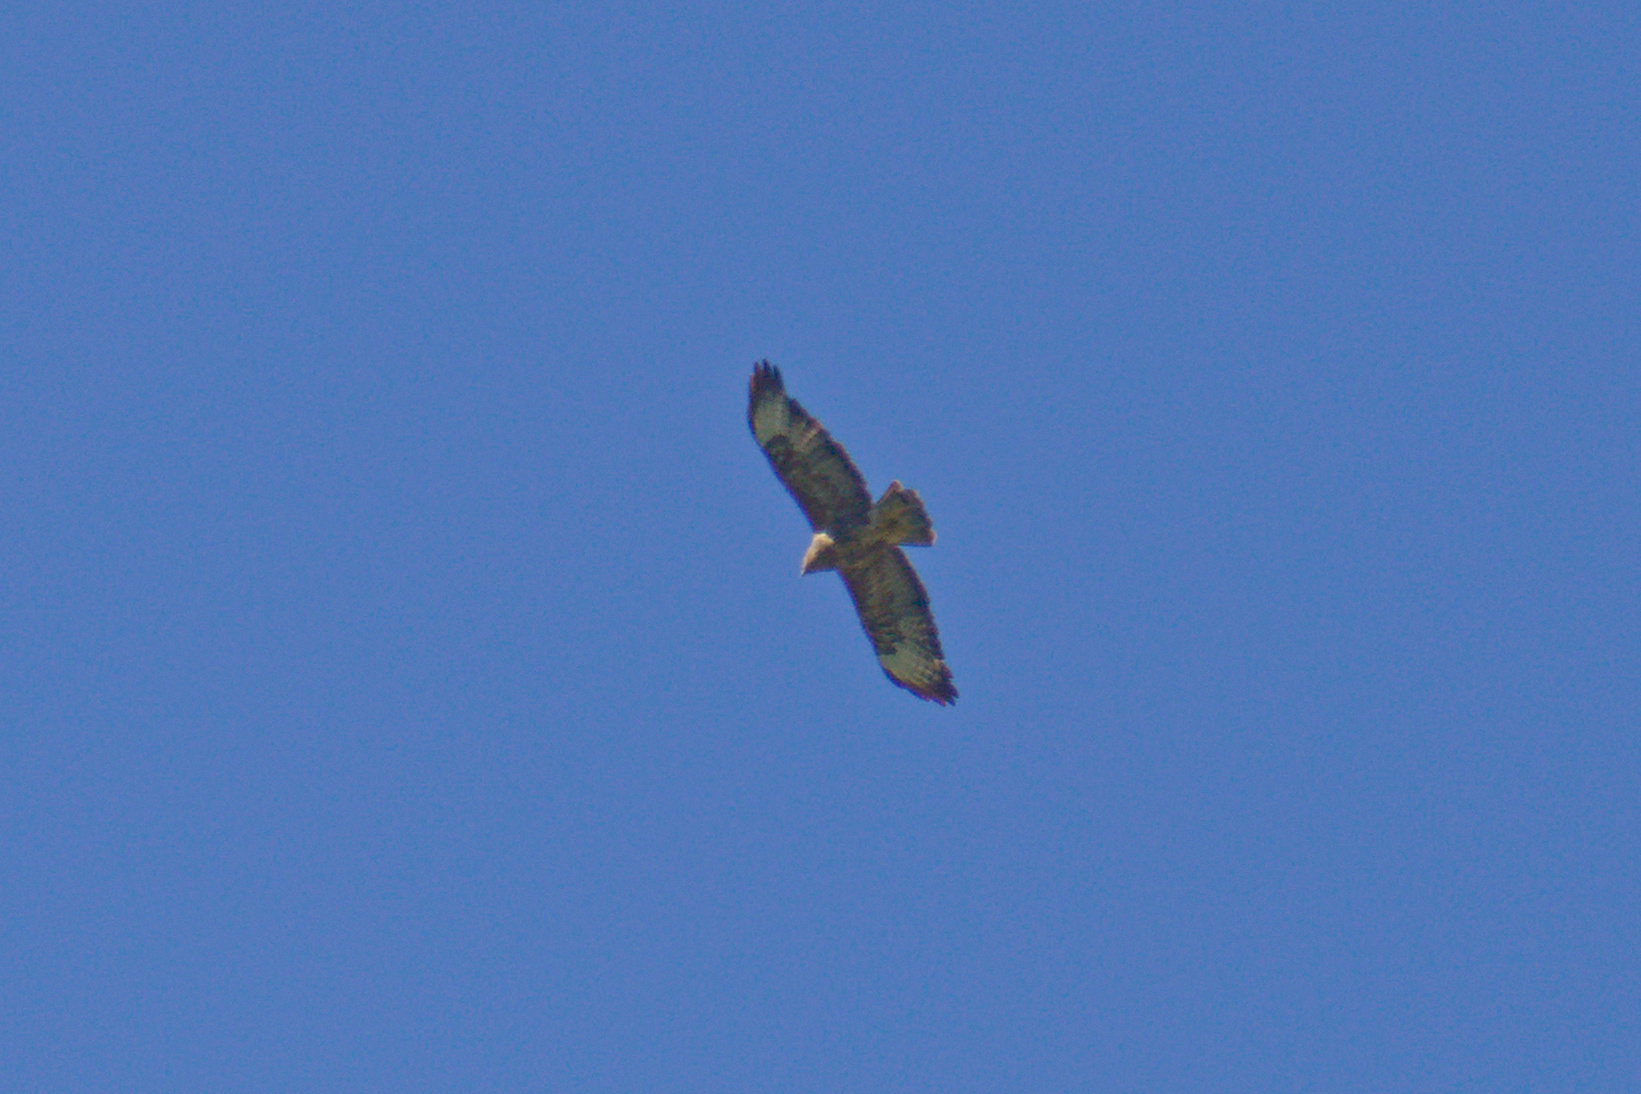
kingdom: Animalia
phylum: Chordata
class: Aves
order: Accipitriformes
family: Accipitridae
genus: Buteo
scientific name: Buteo buteo
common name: Common buzzard
